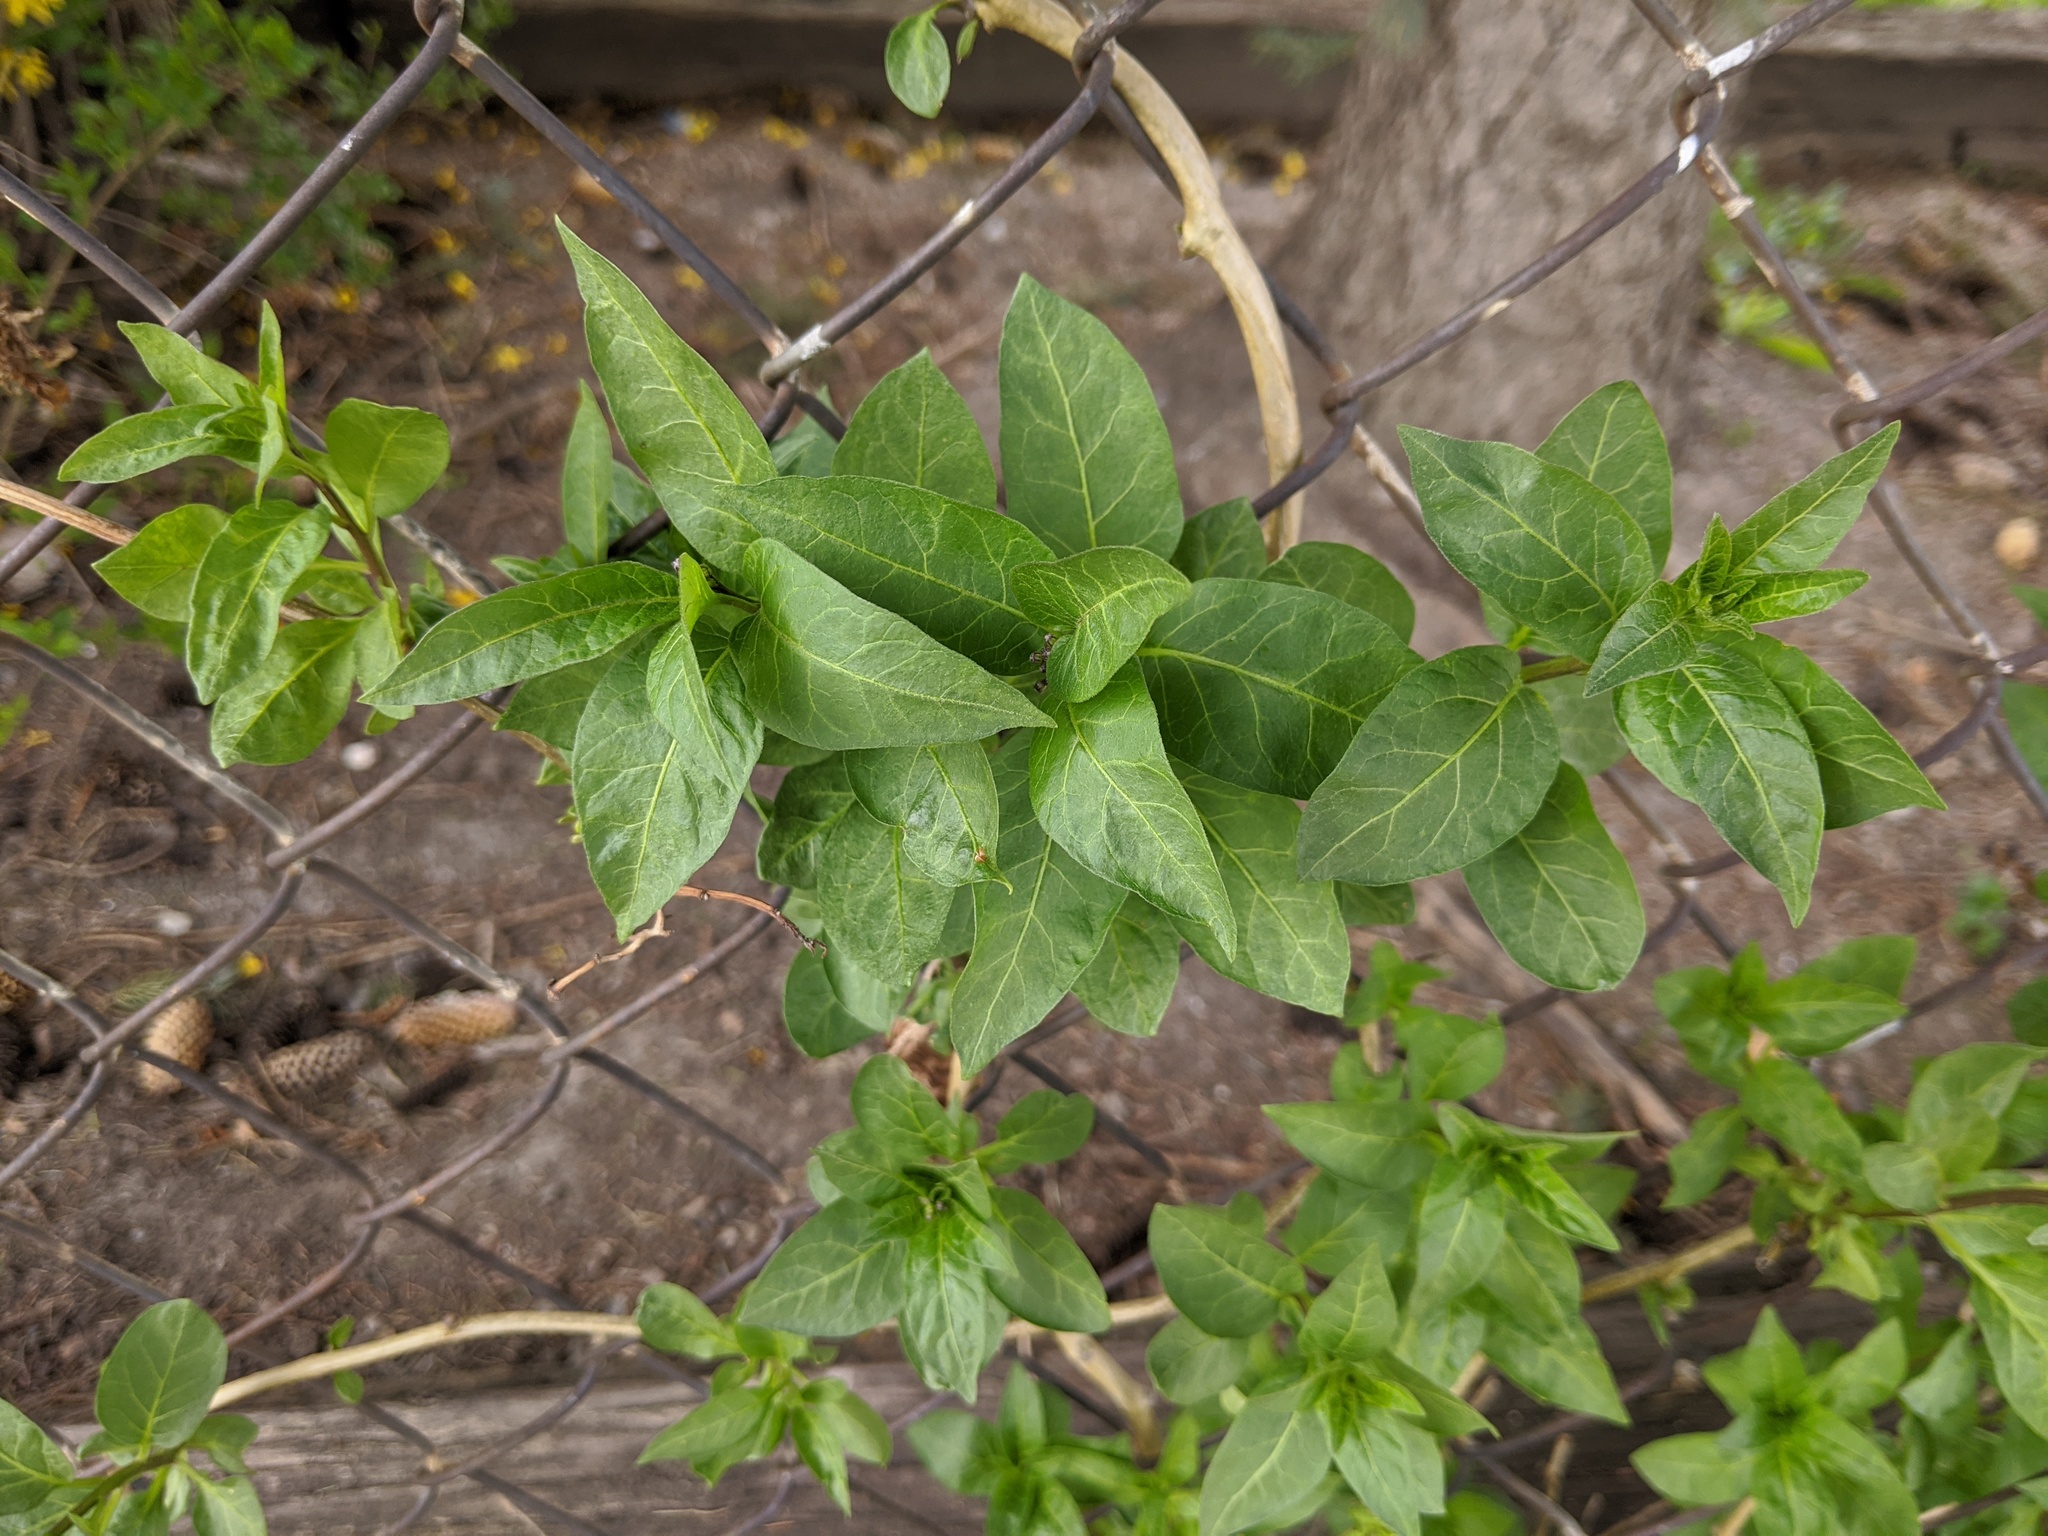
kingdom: Plantae
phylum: Tracheophyta
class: Magnoliopsida
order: Solanales
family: Solanaceae
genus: Solanum
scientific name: Solanum dulcamara
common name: Climbing nightshade
